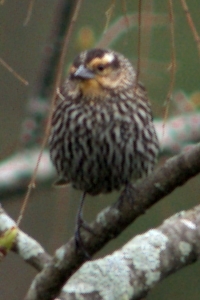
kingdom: Animalia
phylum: Chordata
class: Aves
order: Passeriformes
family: Icteridae
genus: Agelaius
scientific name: Agelaius phoeniceus
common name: Red-winged blackbird
